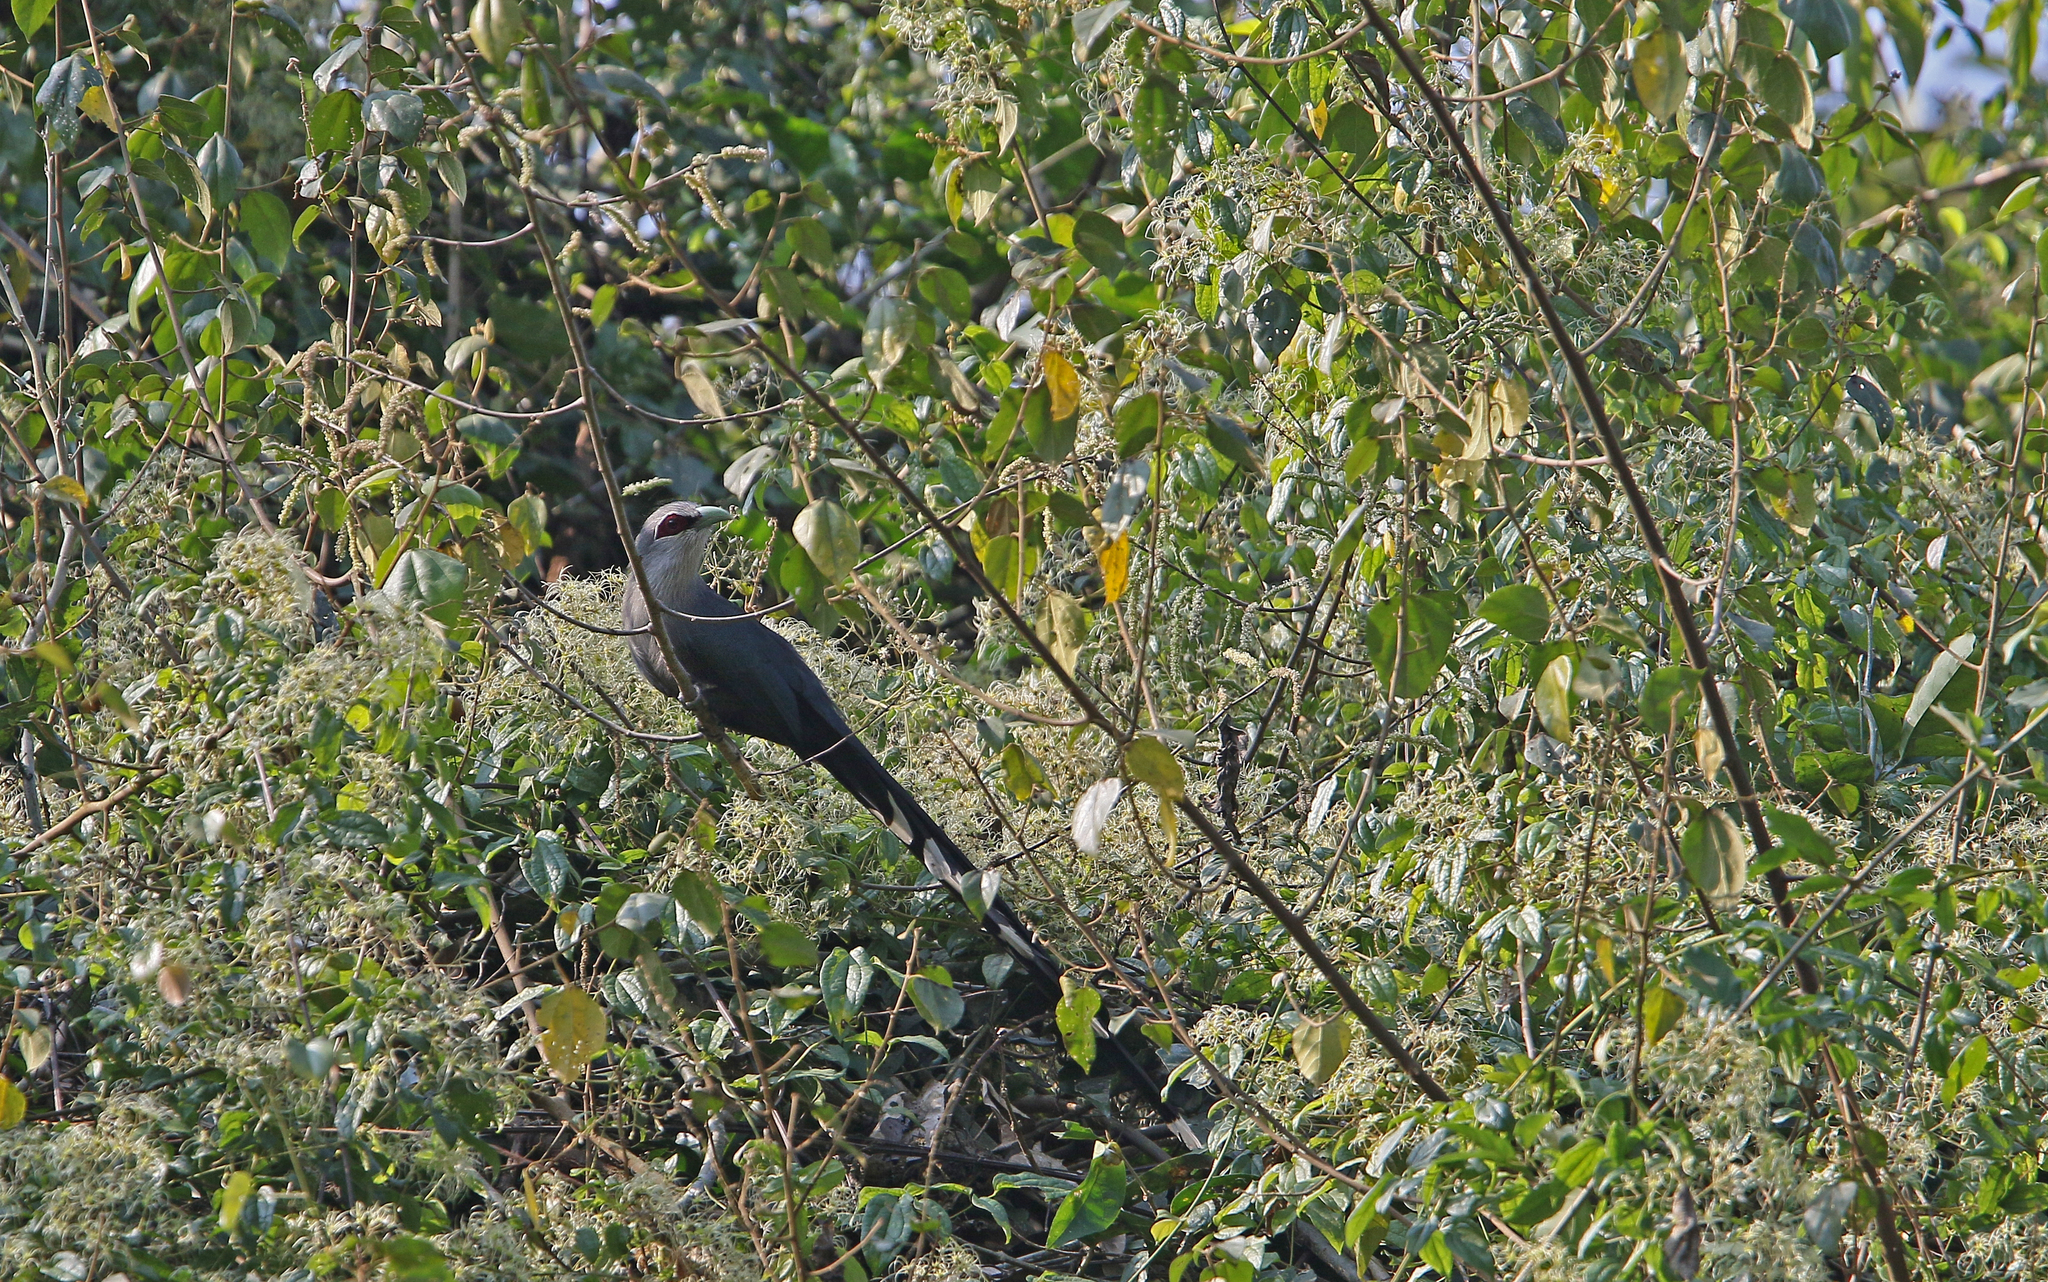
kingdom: Animalia
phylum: Chordata
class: Aves
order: Cuculiformes
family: Cuculidae
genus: Rhopodytes
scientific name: Rhopodytes tristis
